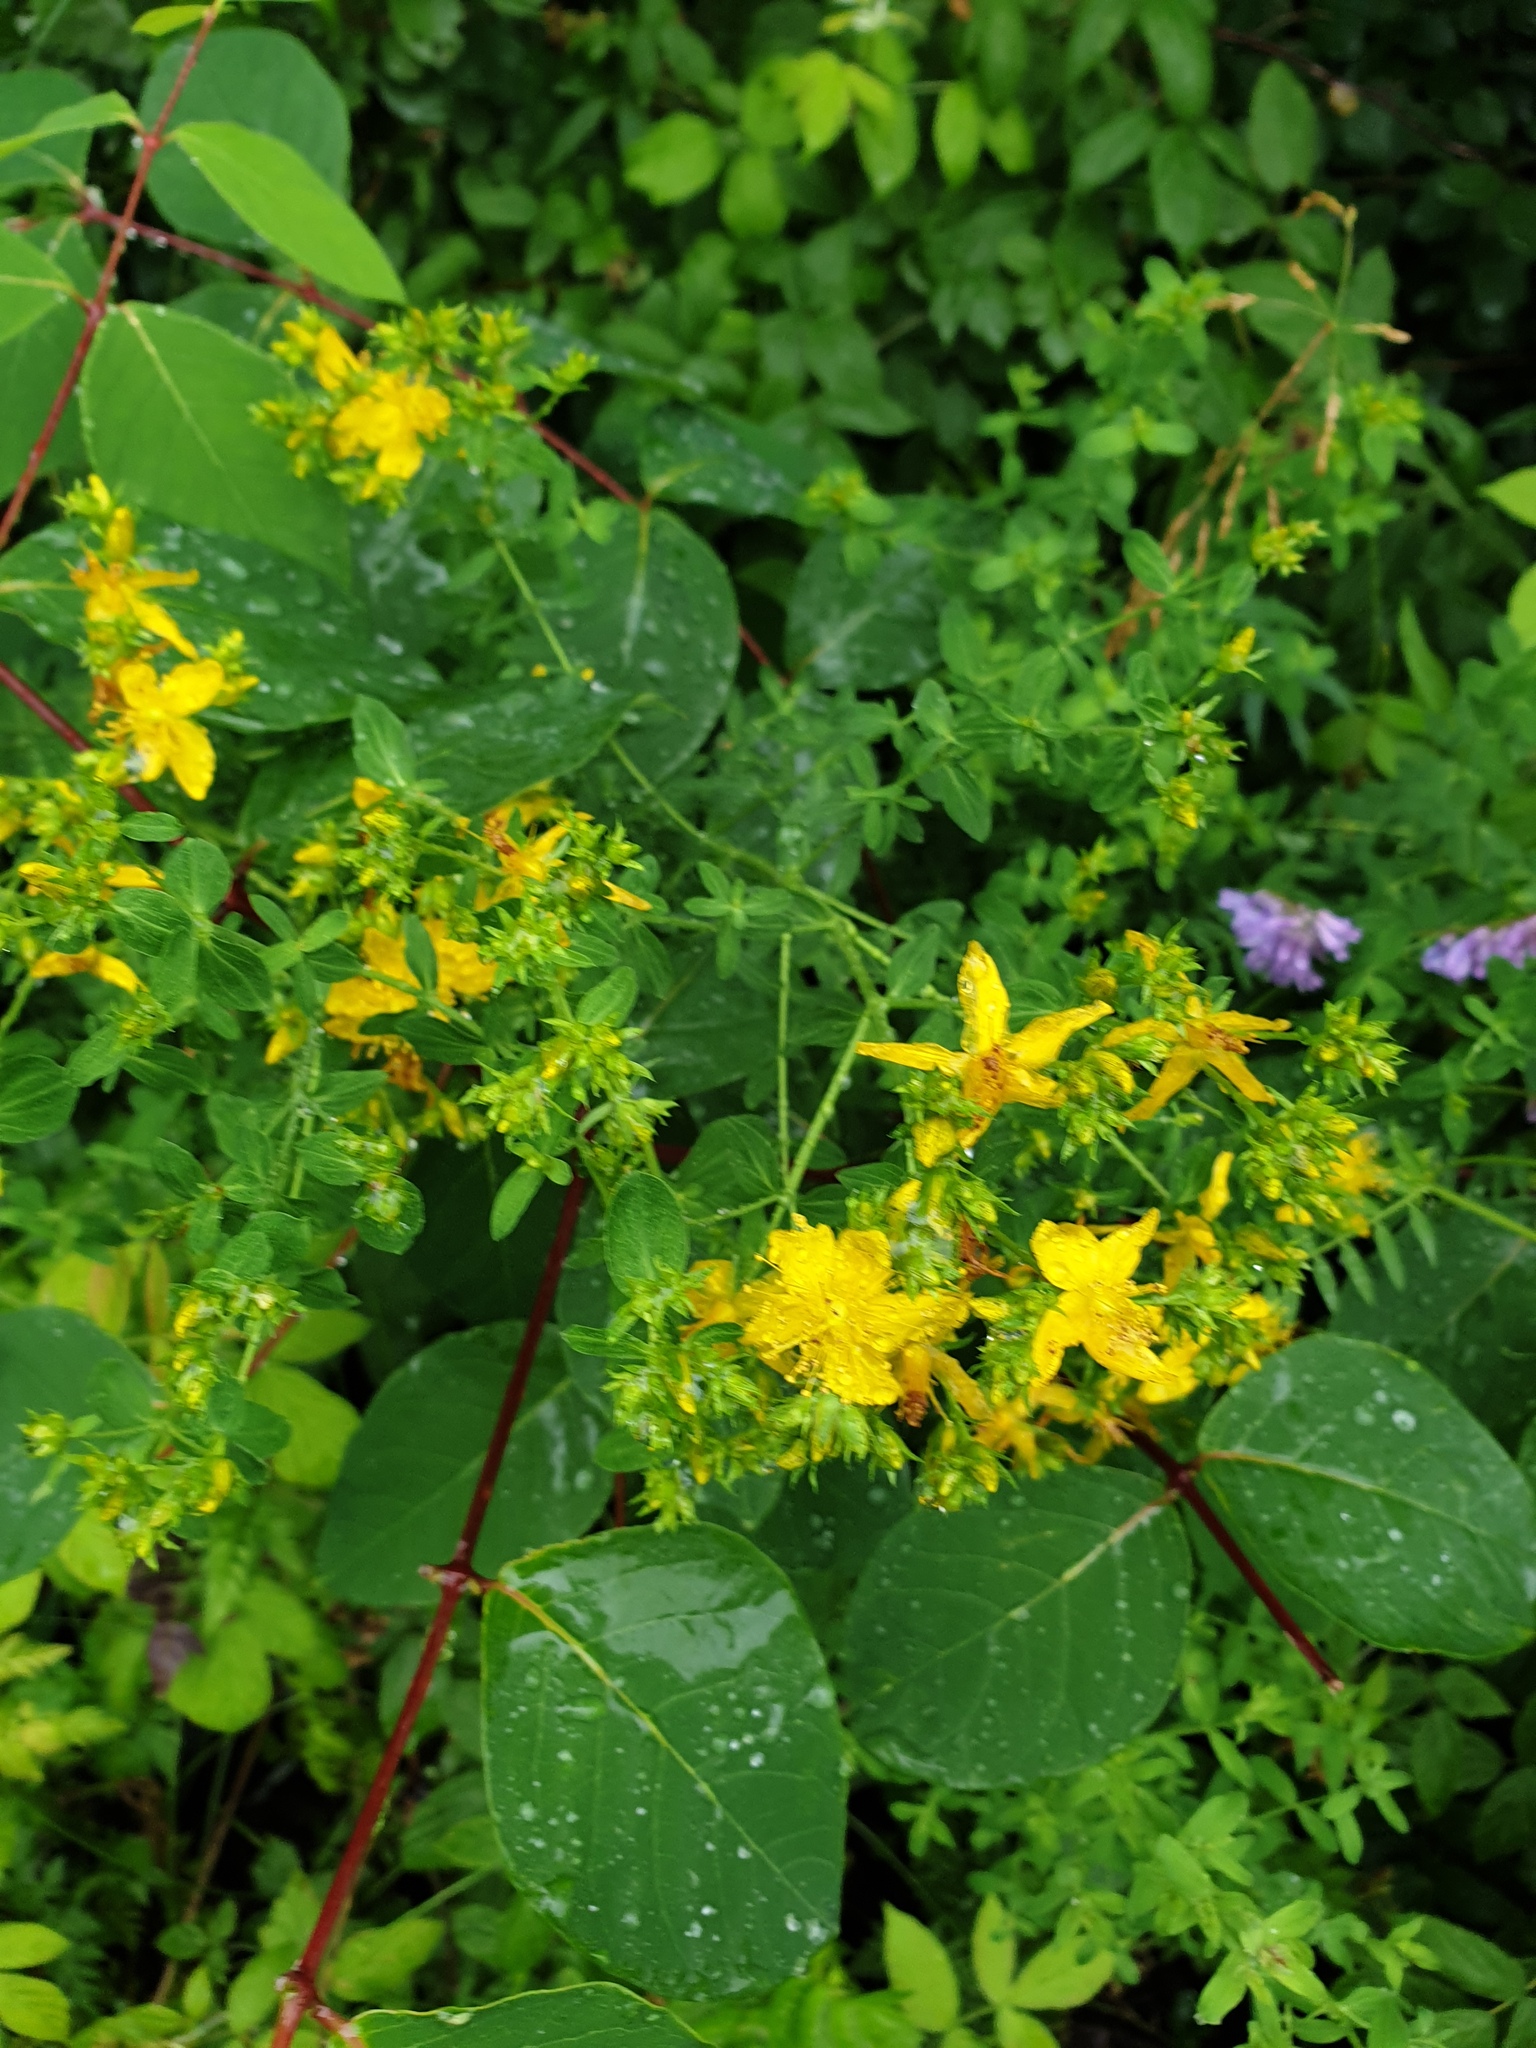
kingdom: Plantae
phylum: Tracheophyta
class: Magnoliopsida
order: Malpighiales
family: Hypericaceae
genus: Hypericum
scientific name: Hypericum perforatum
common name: Common st. johnswort
